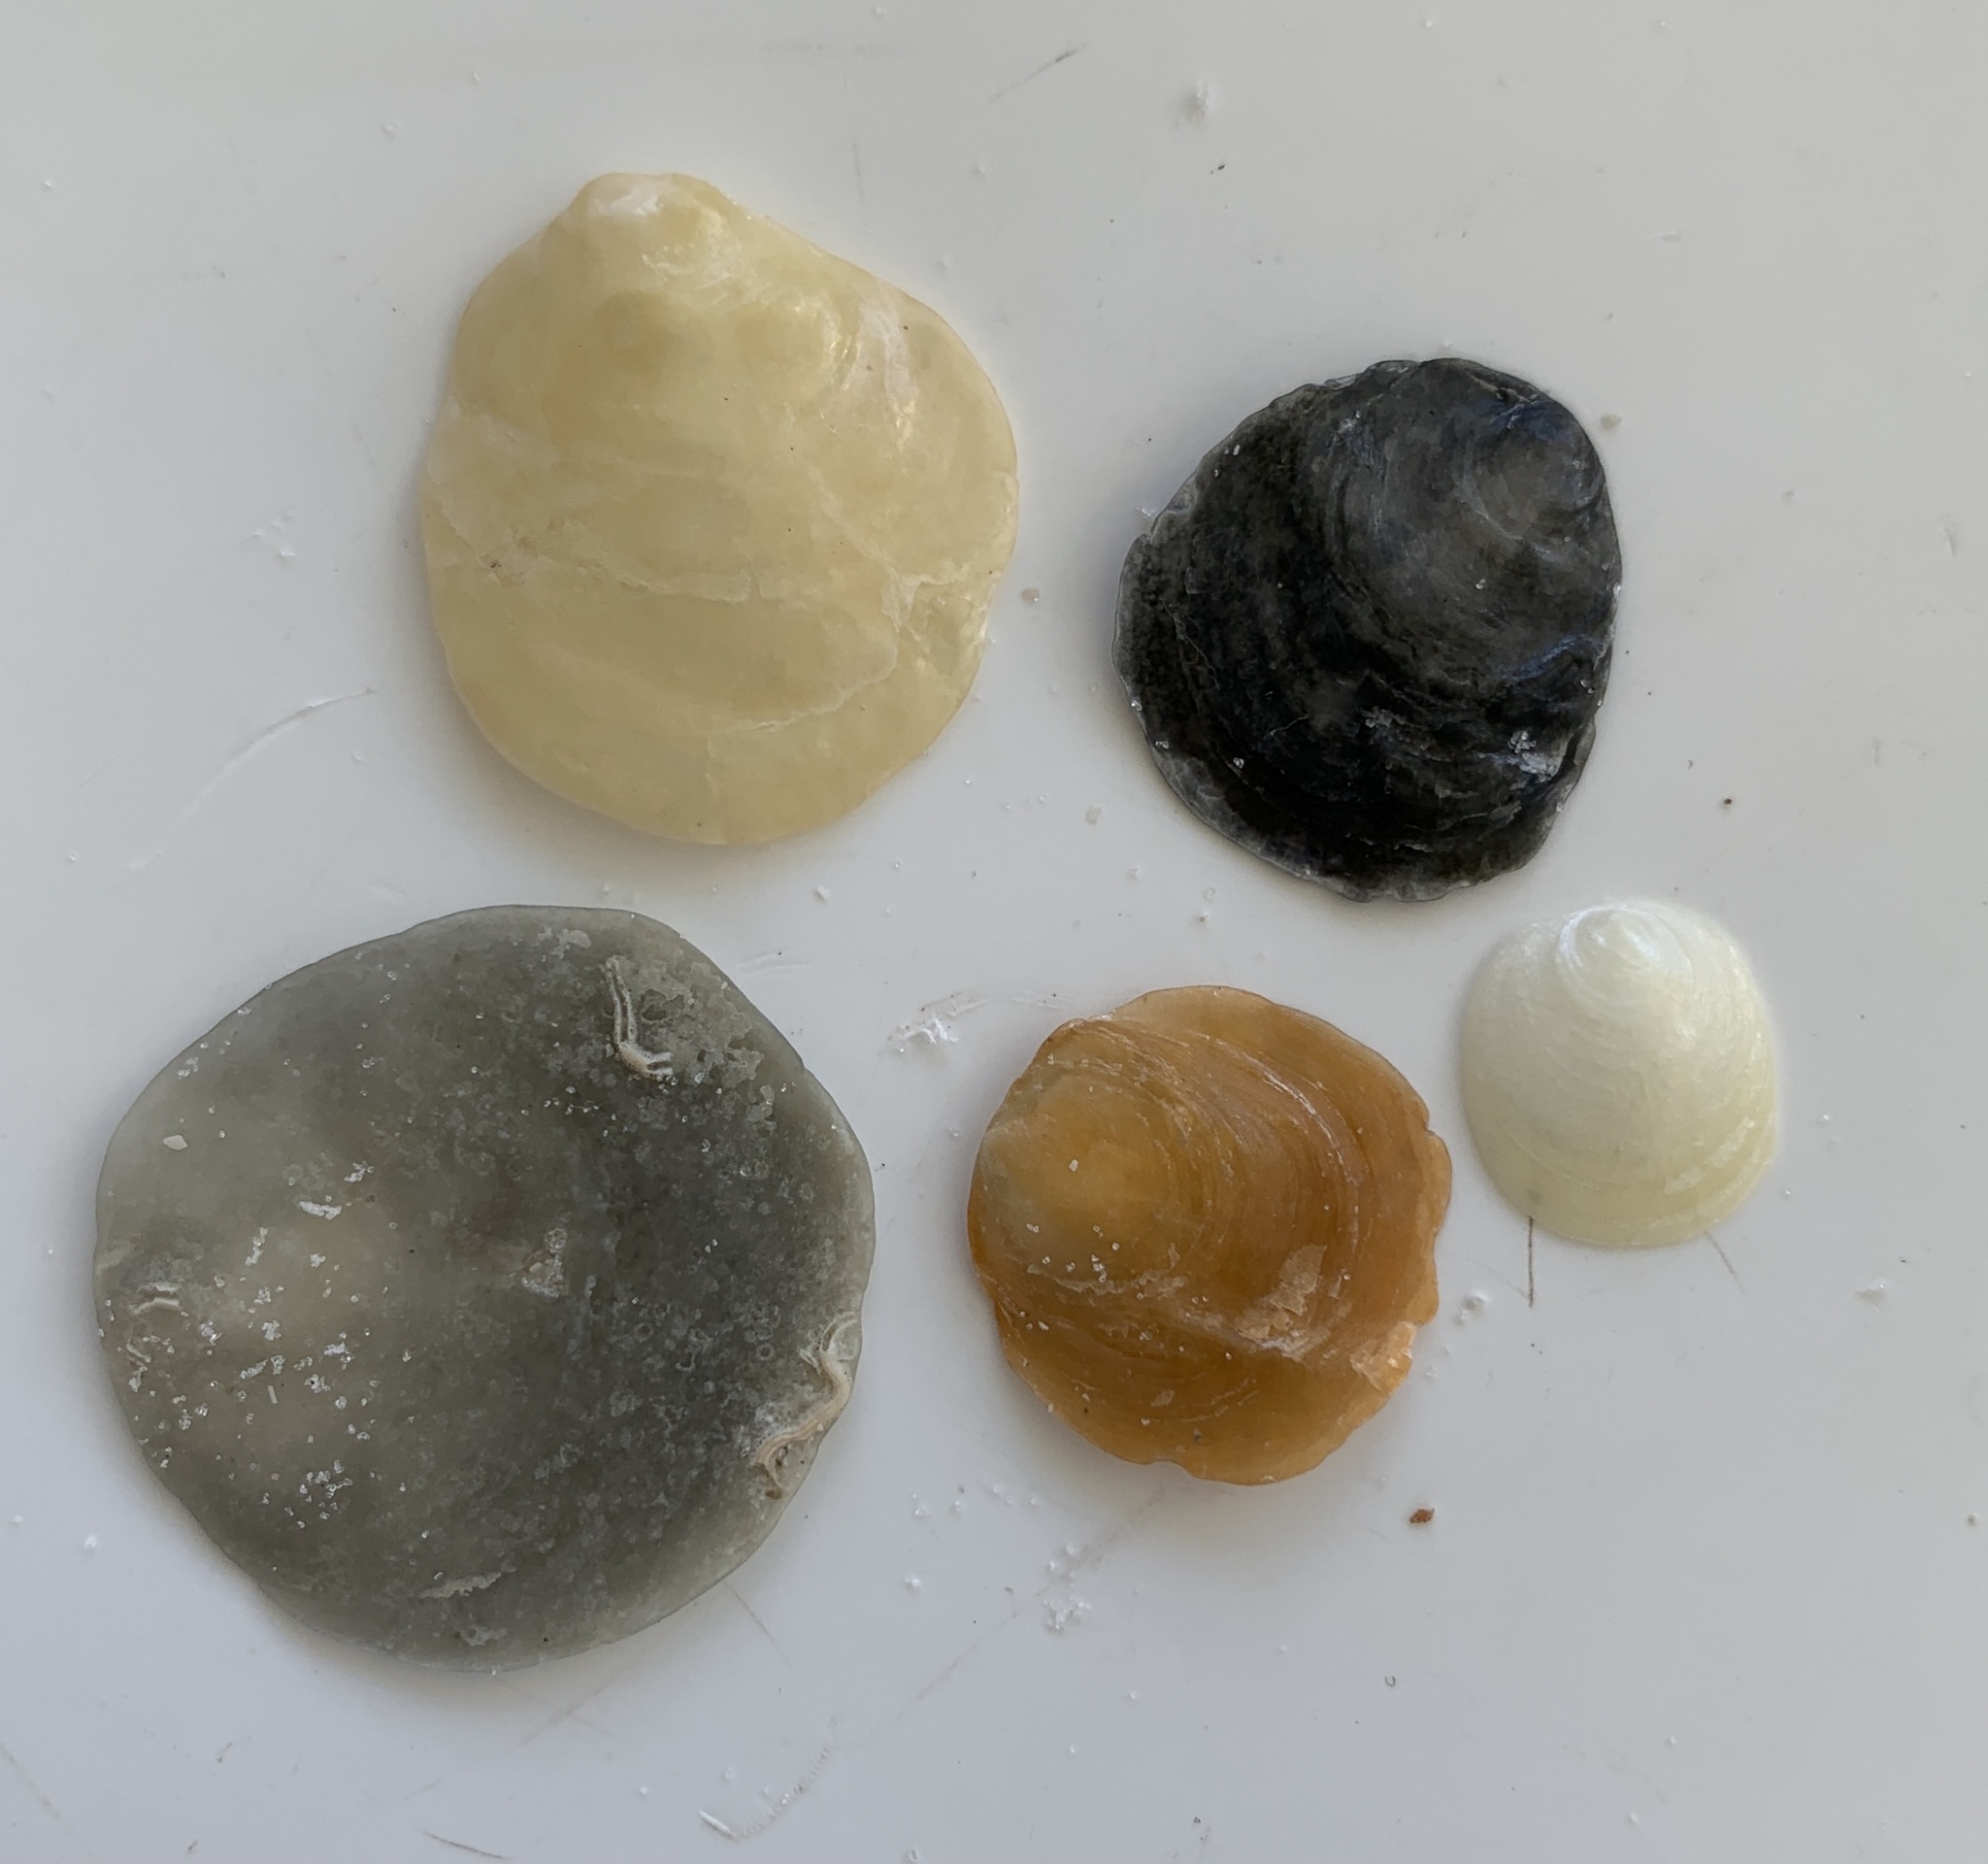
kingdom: Animalia
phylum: Mollusca
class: Bivalvia
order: Pectinida
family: Anomiidae
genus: Anomia
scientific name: Anomia simplex
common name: Common jingle shell
